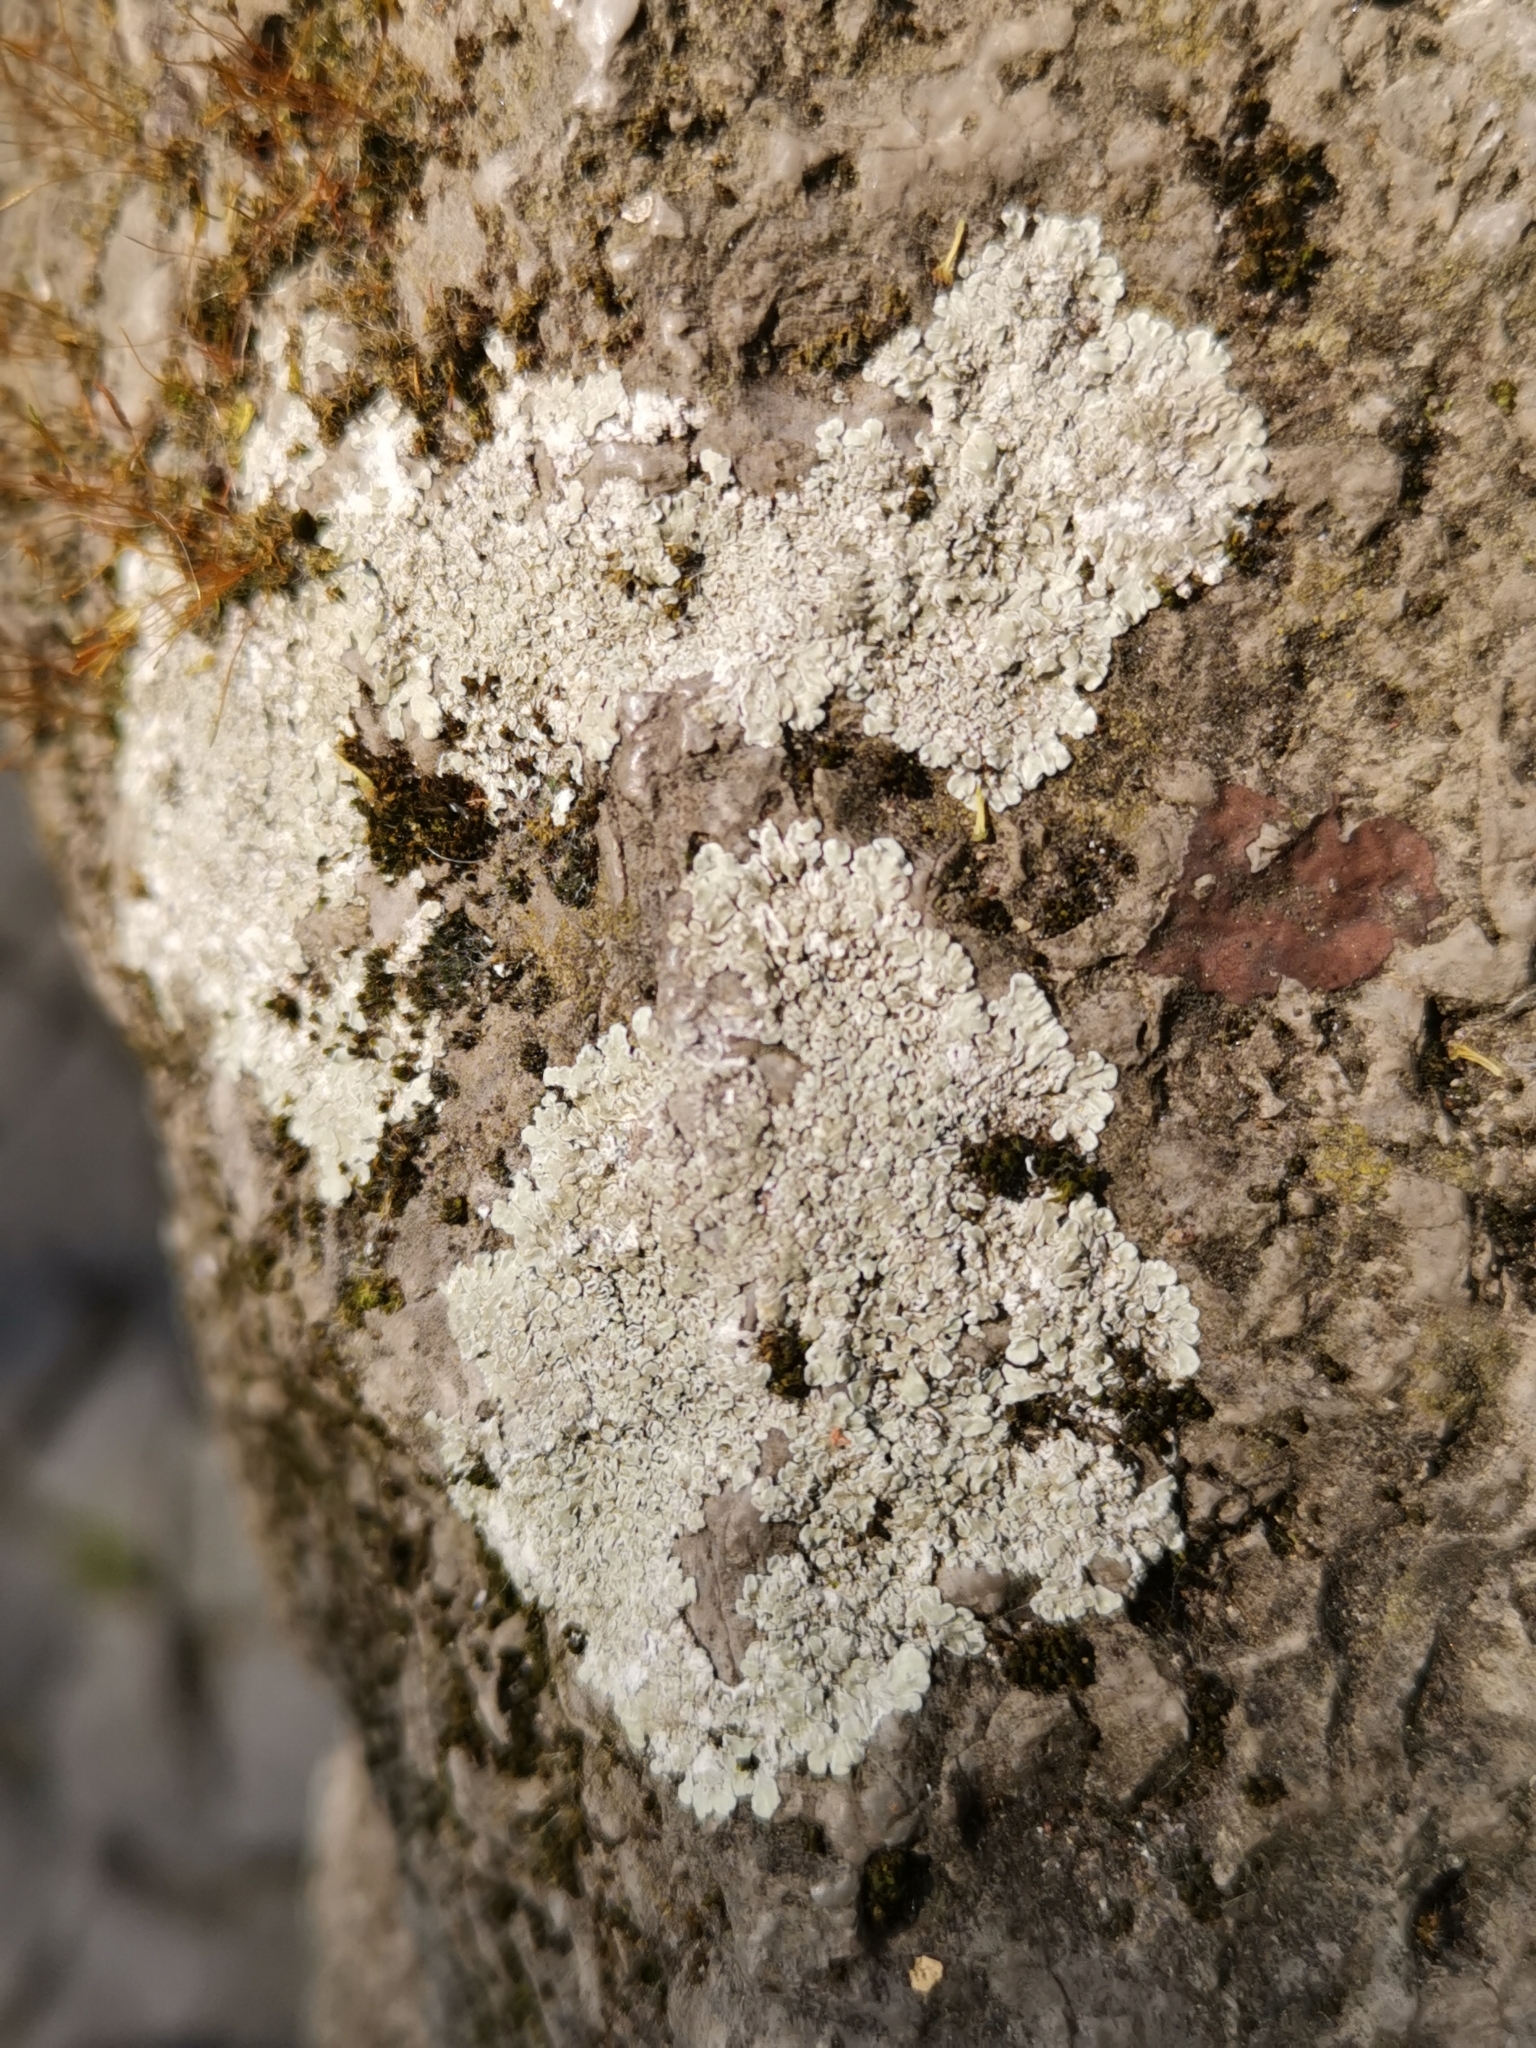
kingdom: Fungi
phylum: Ascomycota
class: Lecanoromycetes
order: Lecanorales
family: Lecanoraceae
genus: Protoparmeliopsis
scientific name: Protoparmeliopsis muralis
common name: Stonewall rim lichen
